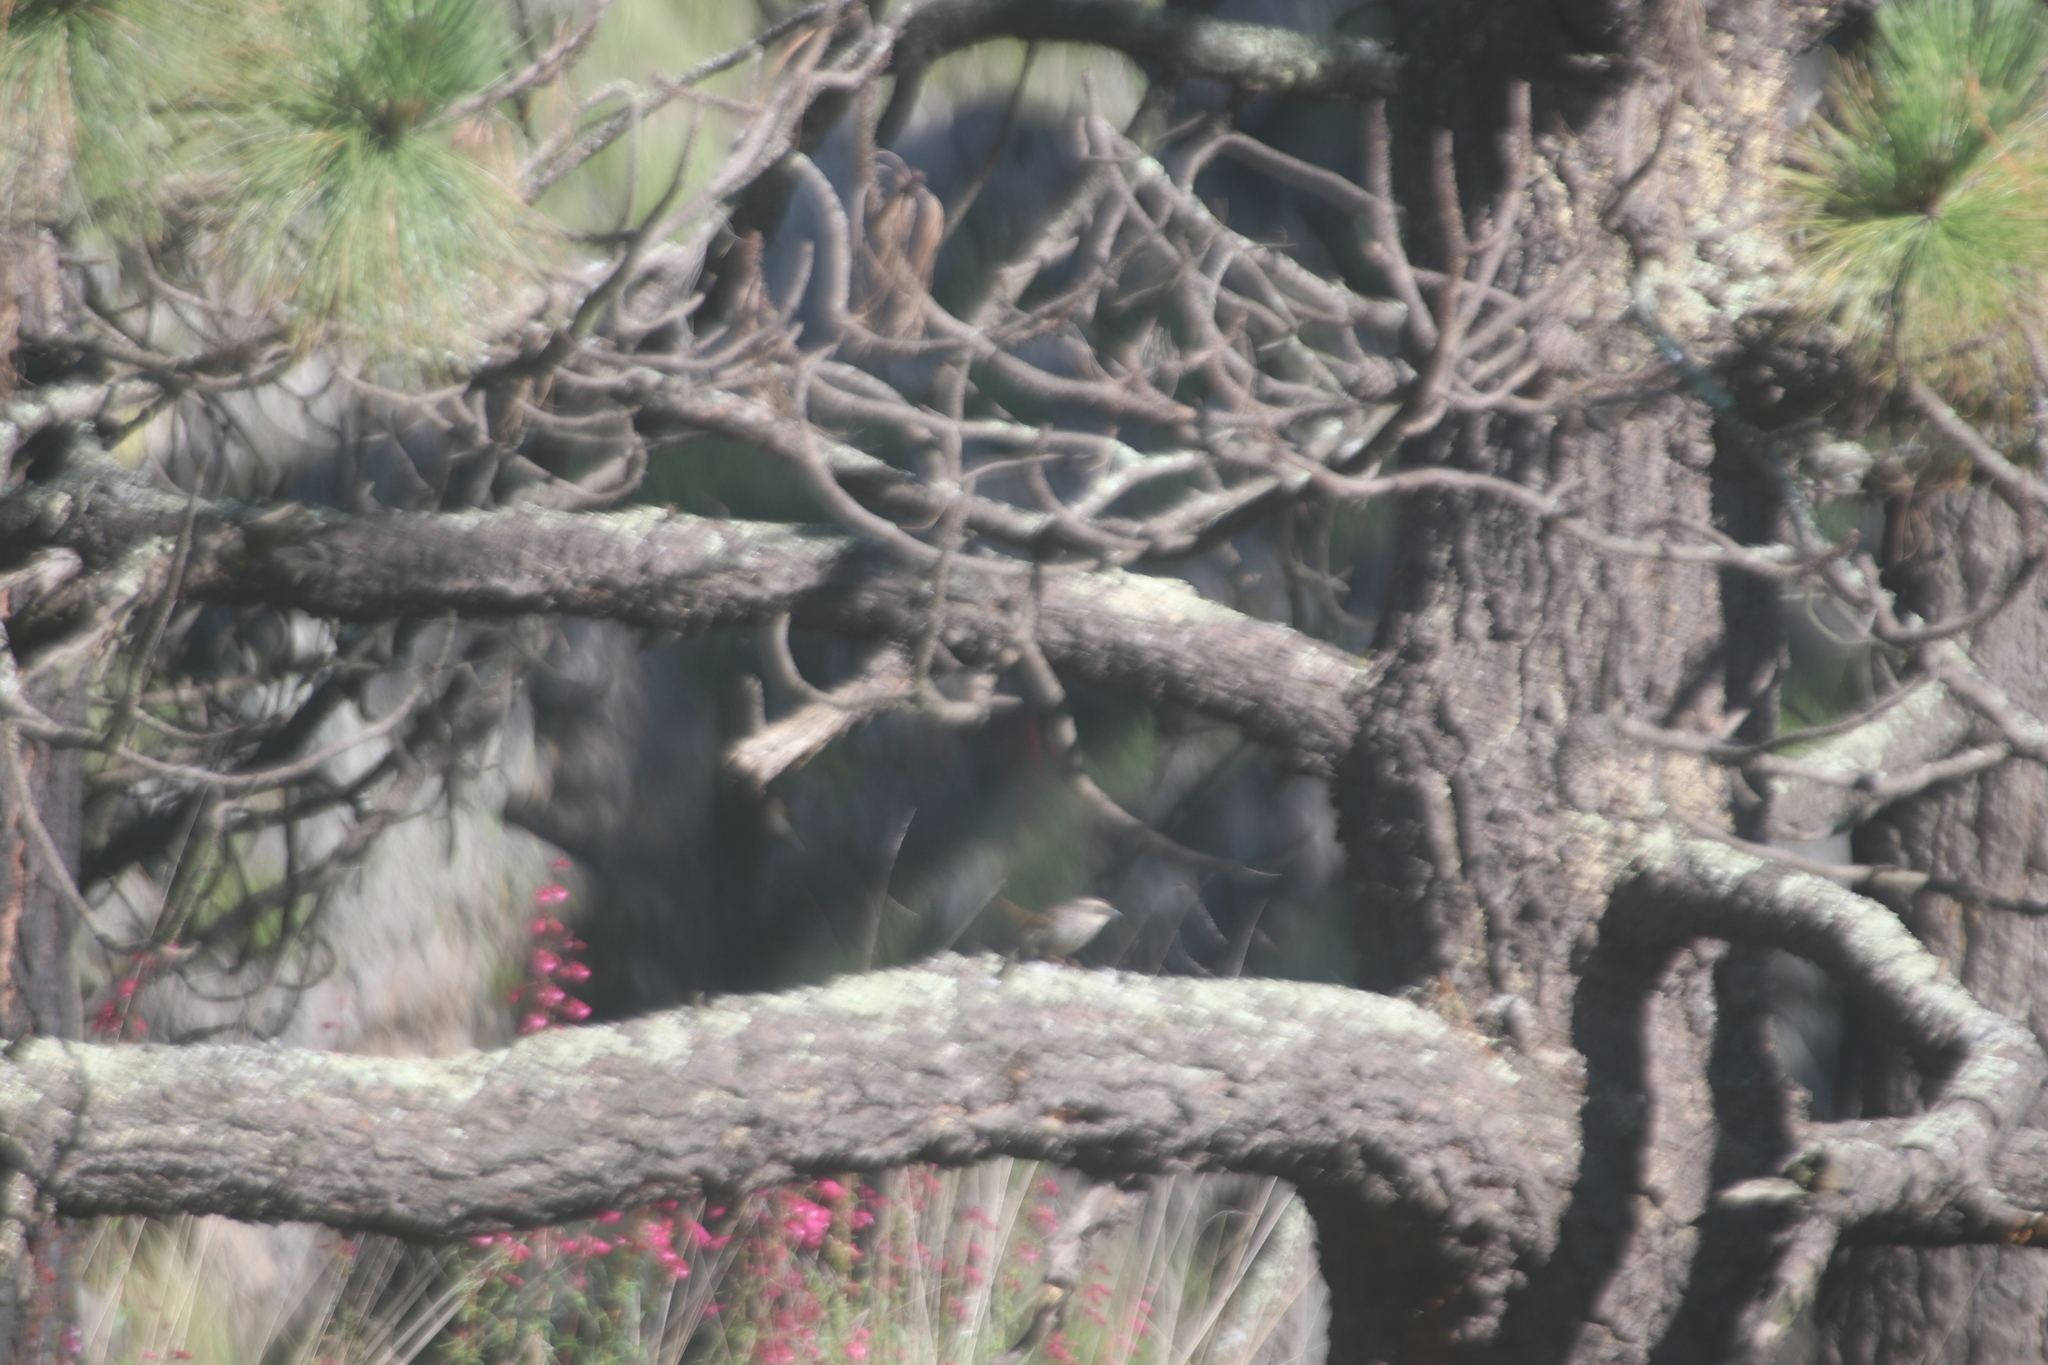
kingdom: Animalia
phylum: Chordata
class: Aves
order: Passeriformes
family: Passerellidae
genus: Oriturus
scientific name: Oriturus superciliosus
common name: Striped sparrow
